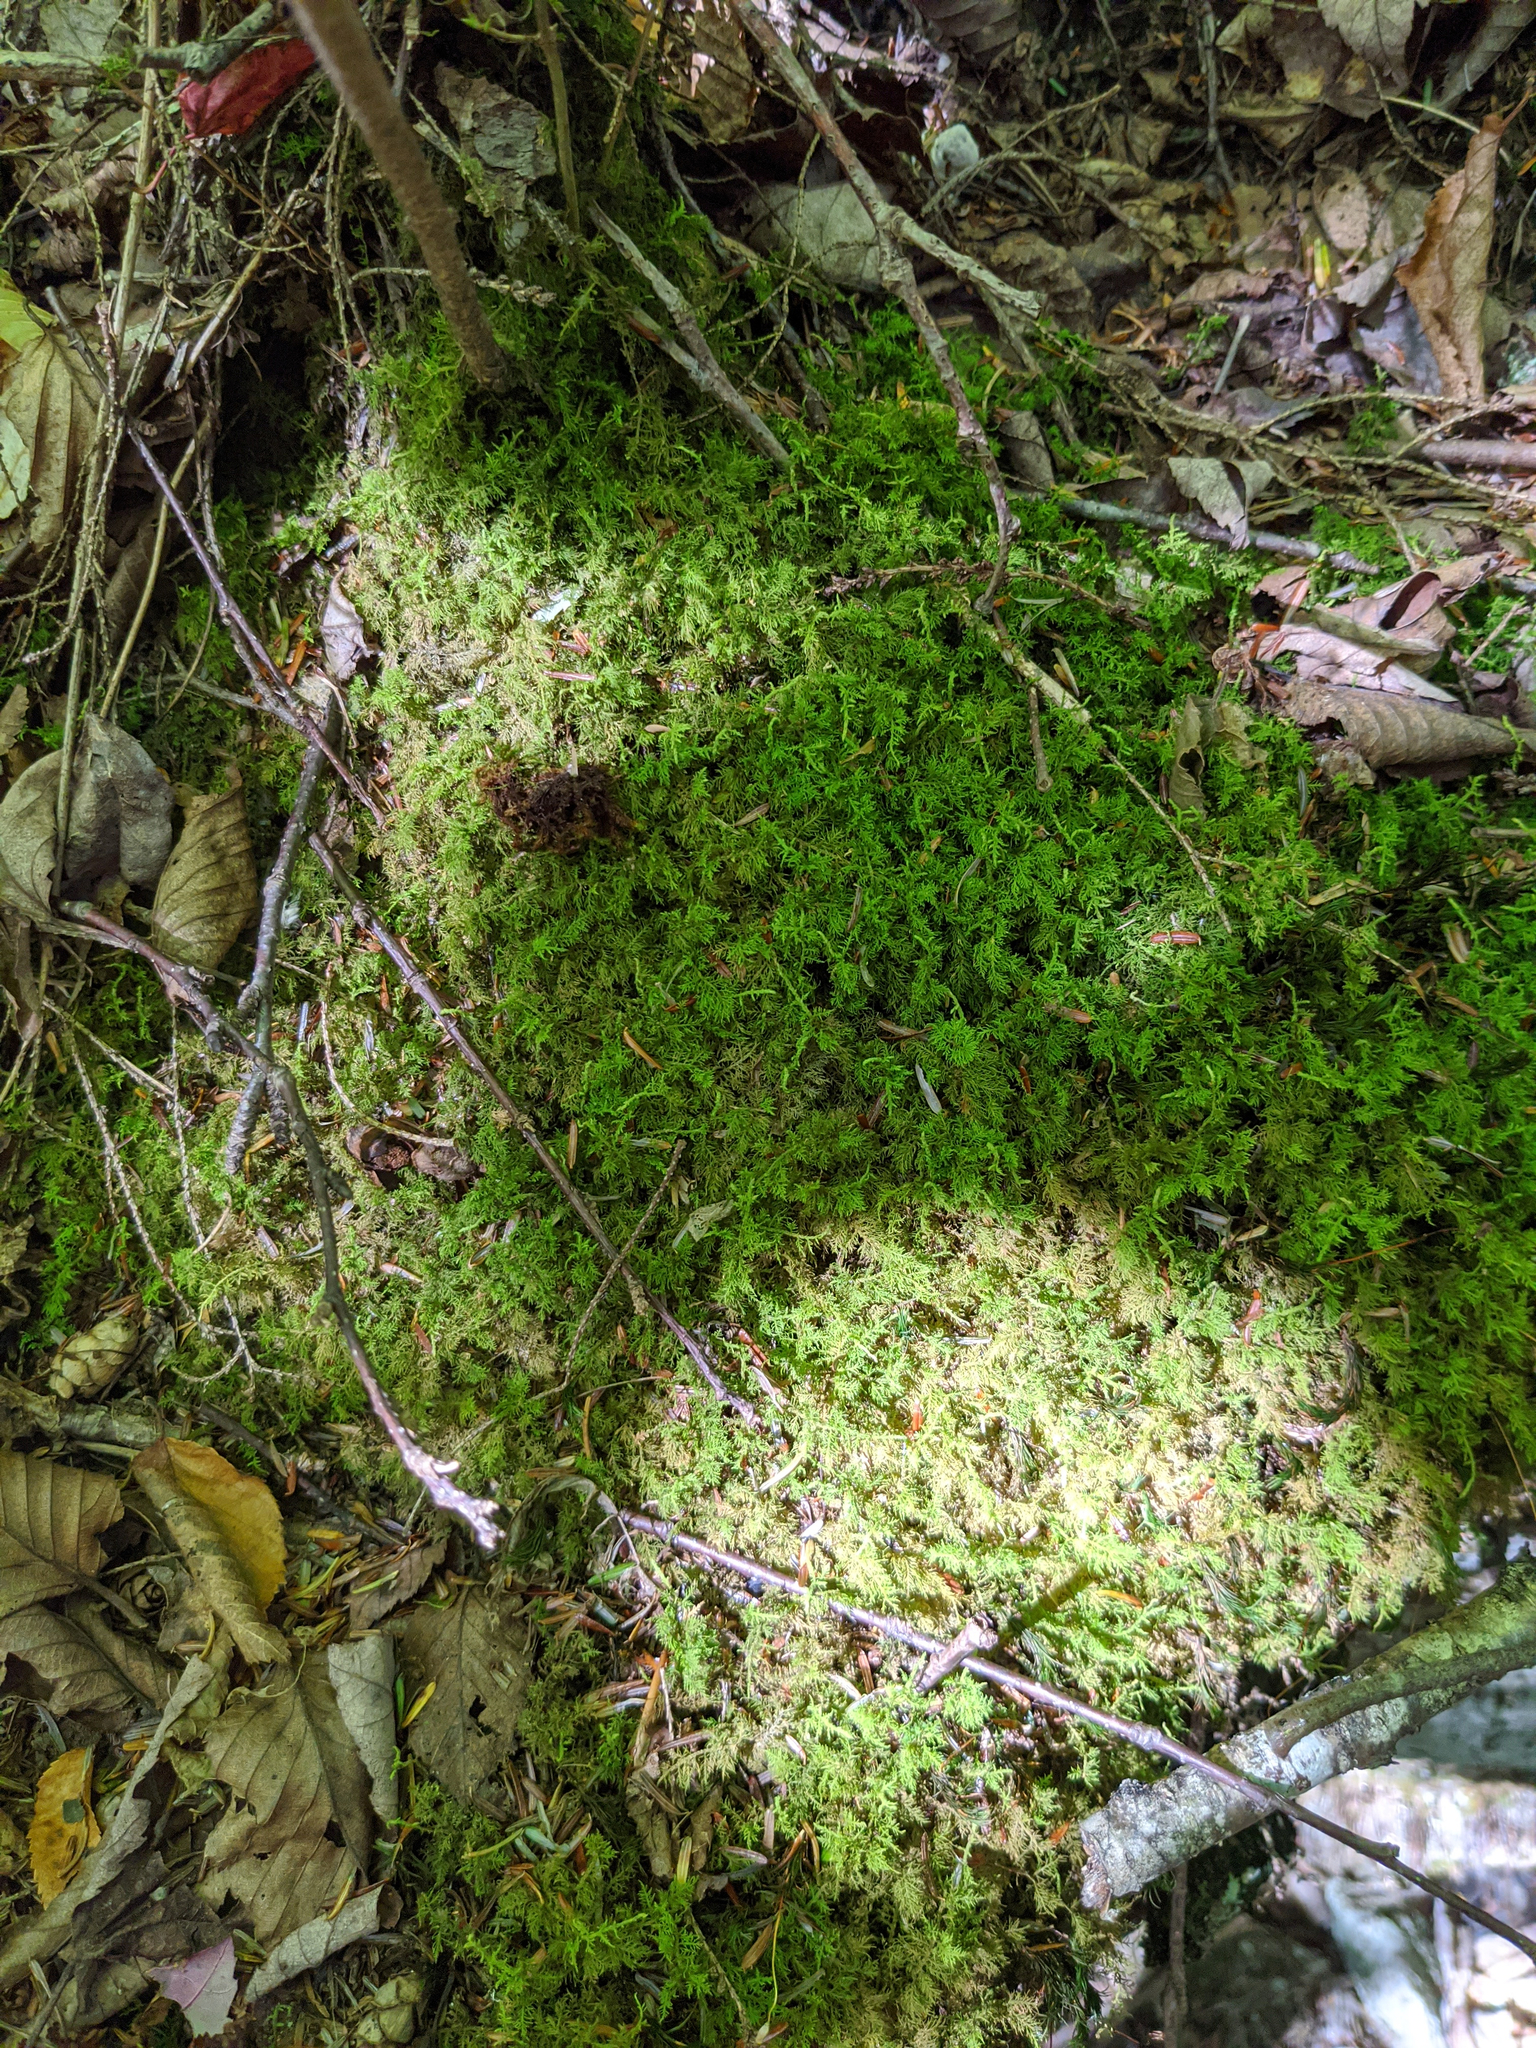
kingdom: Plantae
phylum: Bryophyta
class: Bryopsida
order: Hypnales
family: Thuidiaceae
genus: Thuidium
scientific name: Thuidium delicatulum
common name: Delicate fern moss
